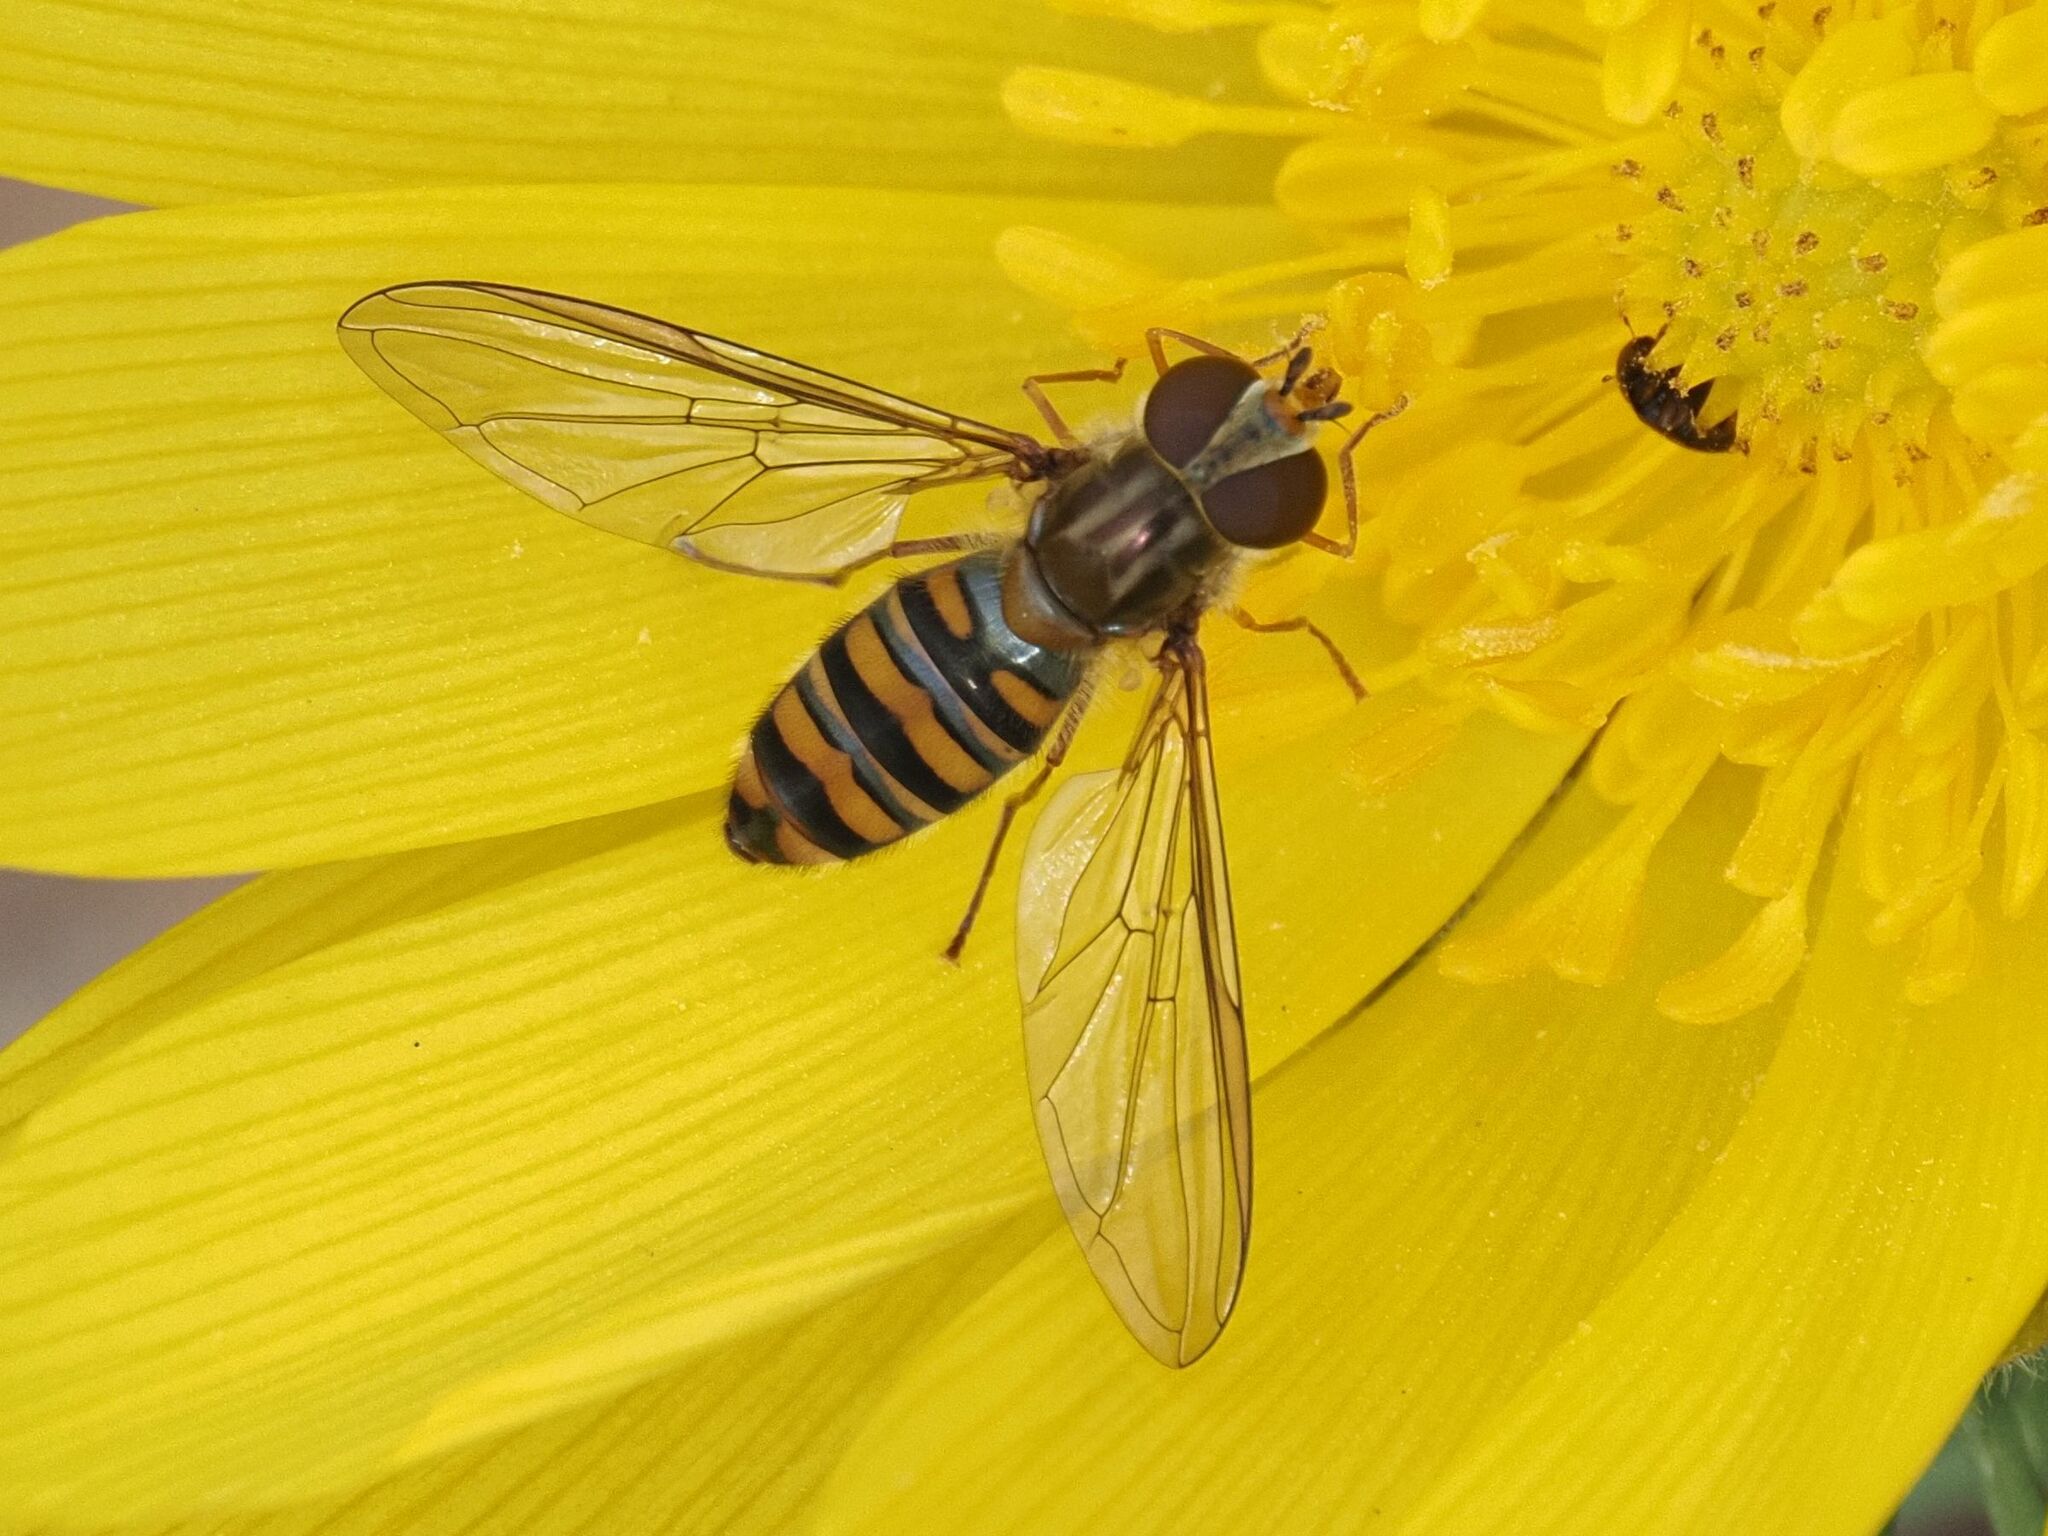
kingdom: Animalia
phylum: Arthropoda
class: Insecta
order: Diptera
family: Syrphidae
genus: Episyrphus
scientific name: Episyrphus balteatus
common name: Marmalade hoverfly
